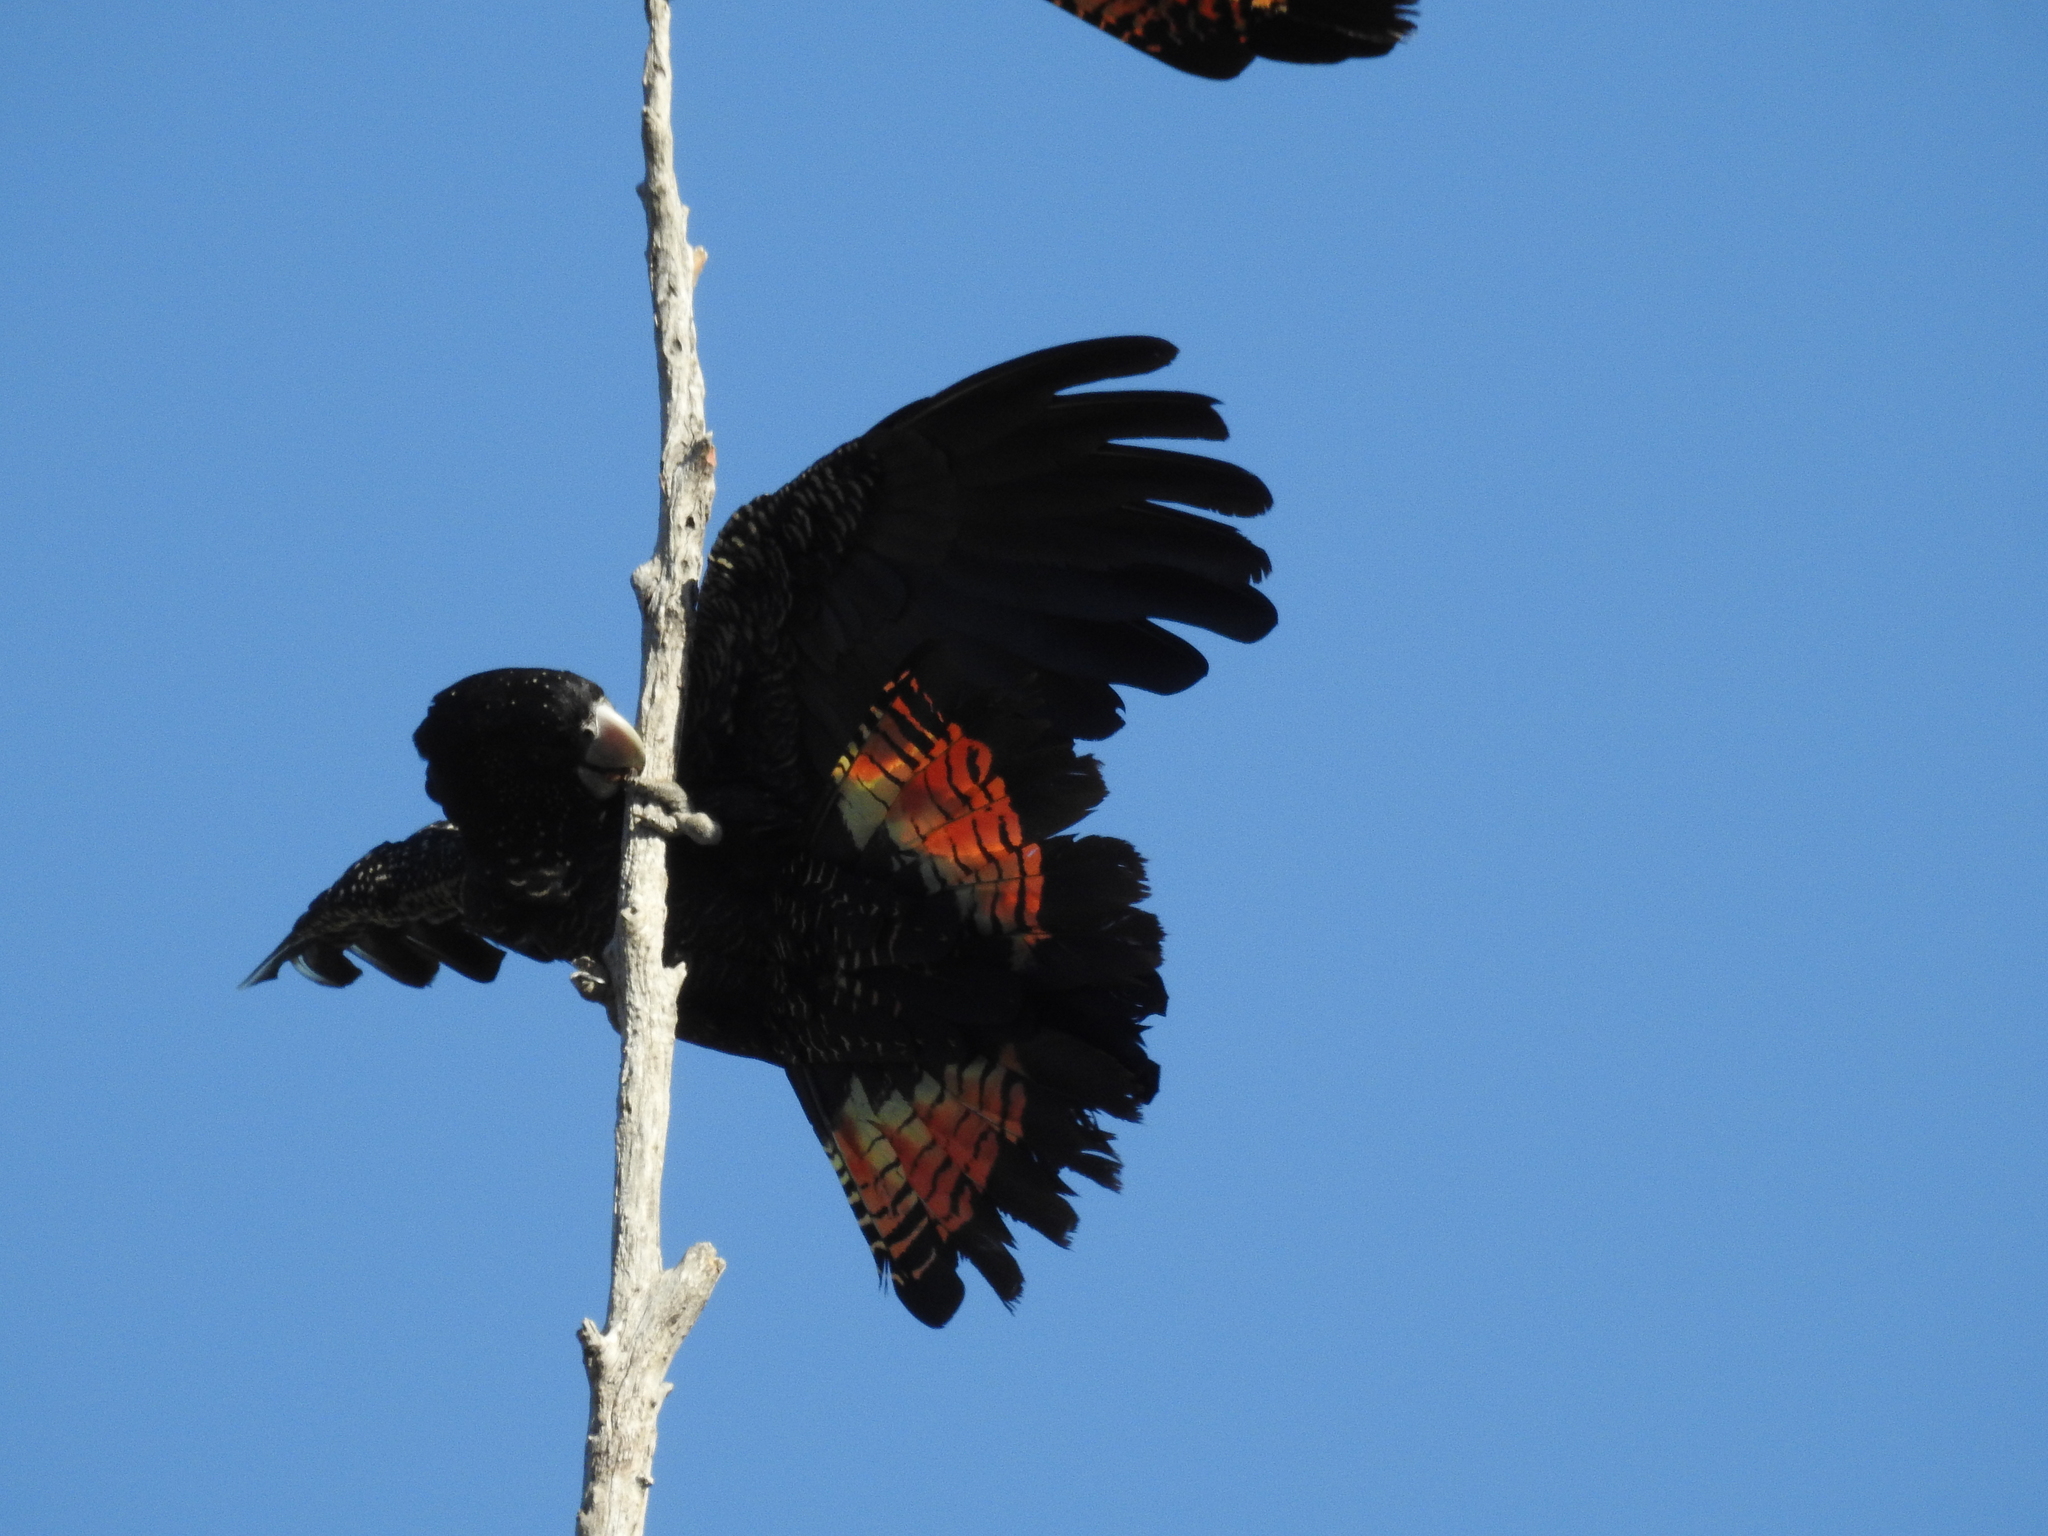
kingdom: Animalia
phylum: Chordata
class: Aves
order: Psittaciformes
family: Psittacidae
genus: Calyptorhynchus
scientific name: Calyptorhynchus banksii
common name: Red-tailed black cockatoo
